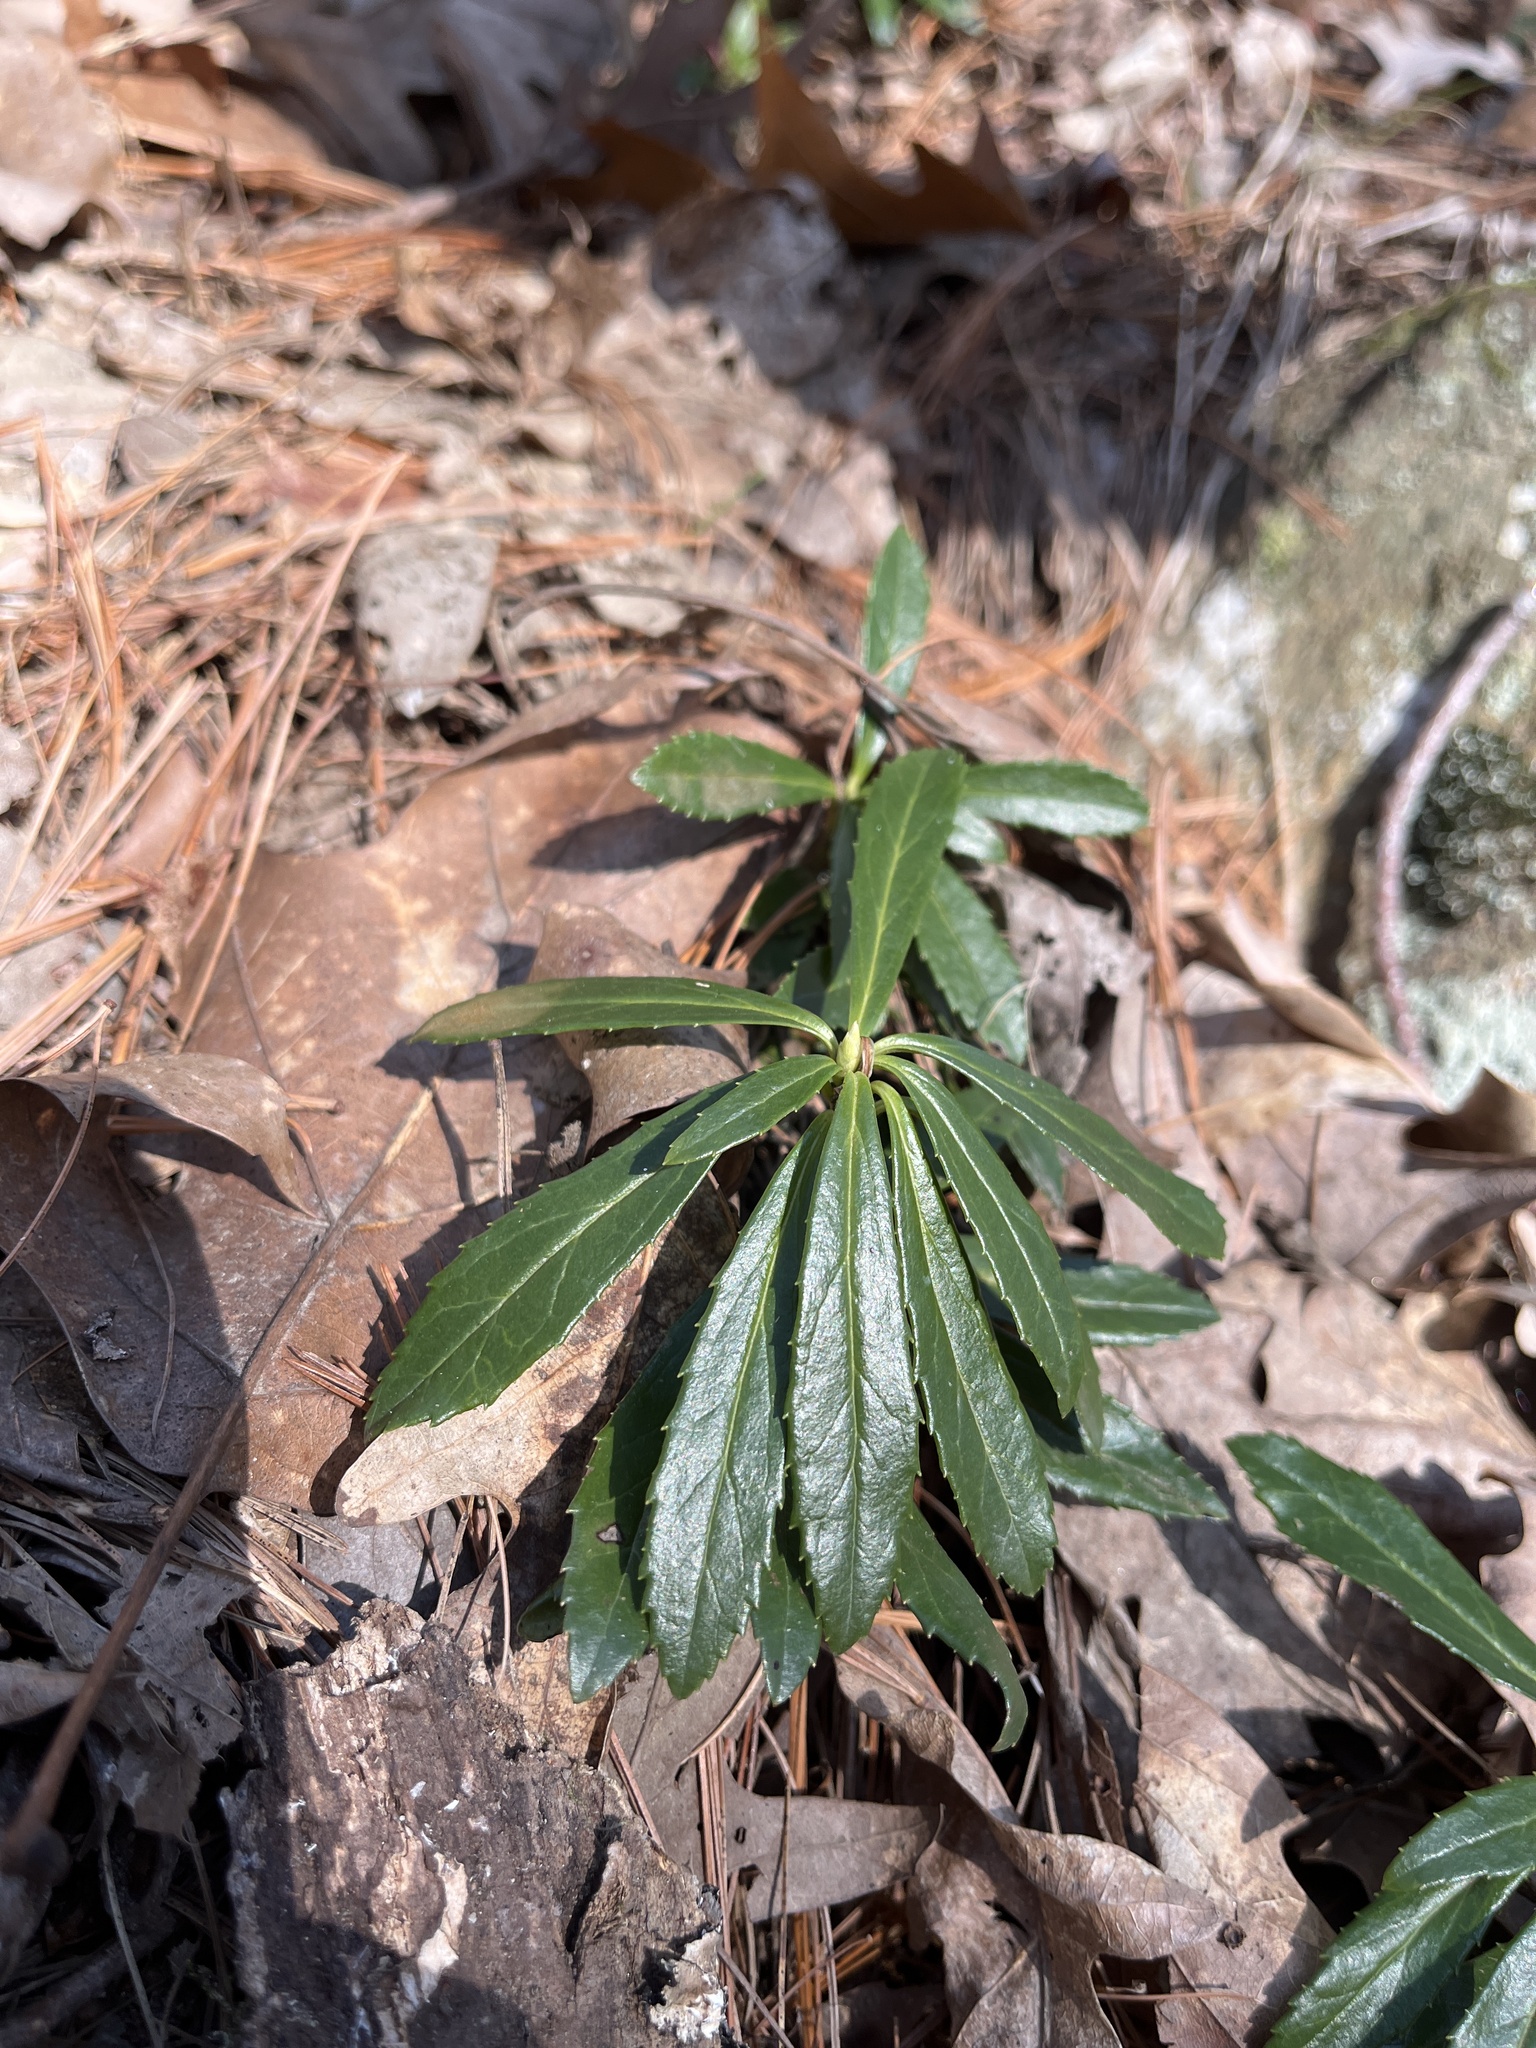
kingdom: Plantae
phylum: Tracheophyta
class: Magnoliopsida
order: Ericales
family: Ericaceae
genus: Chimaphila
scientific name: Chimaphila umbellata
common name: Pipsissewa
